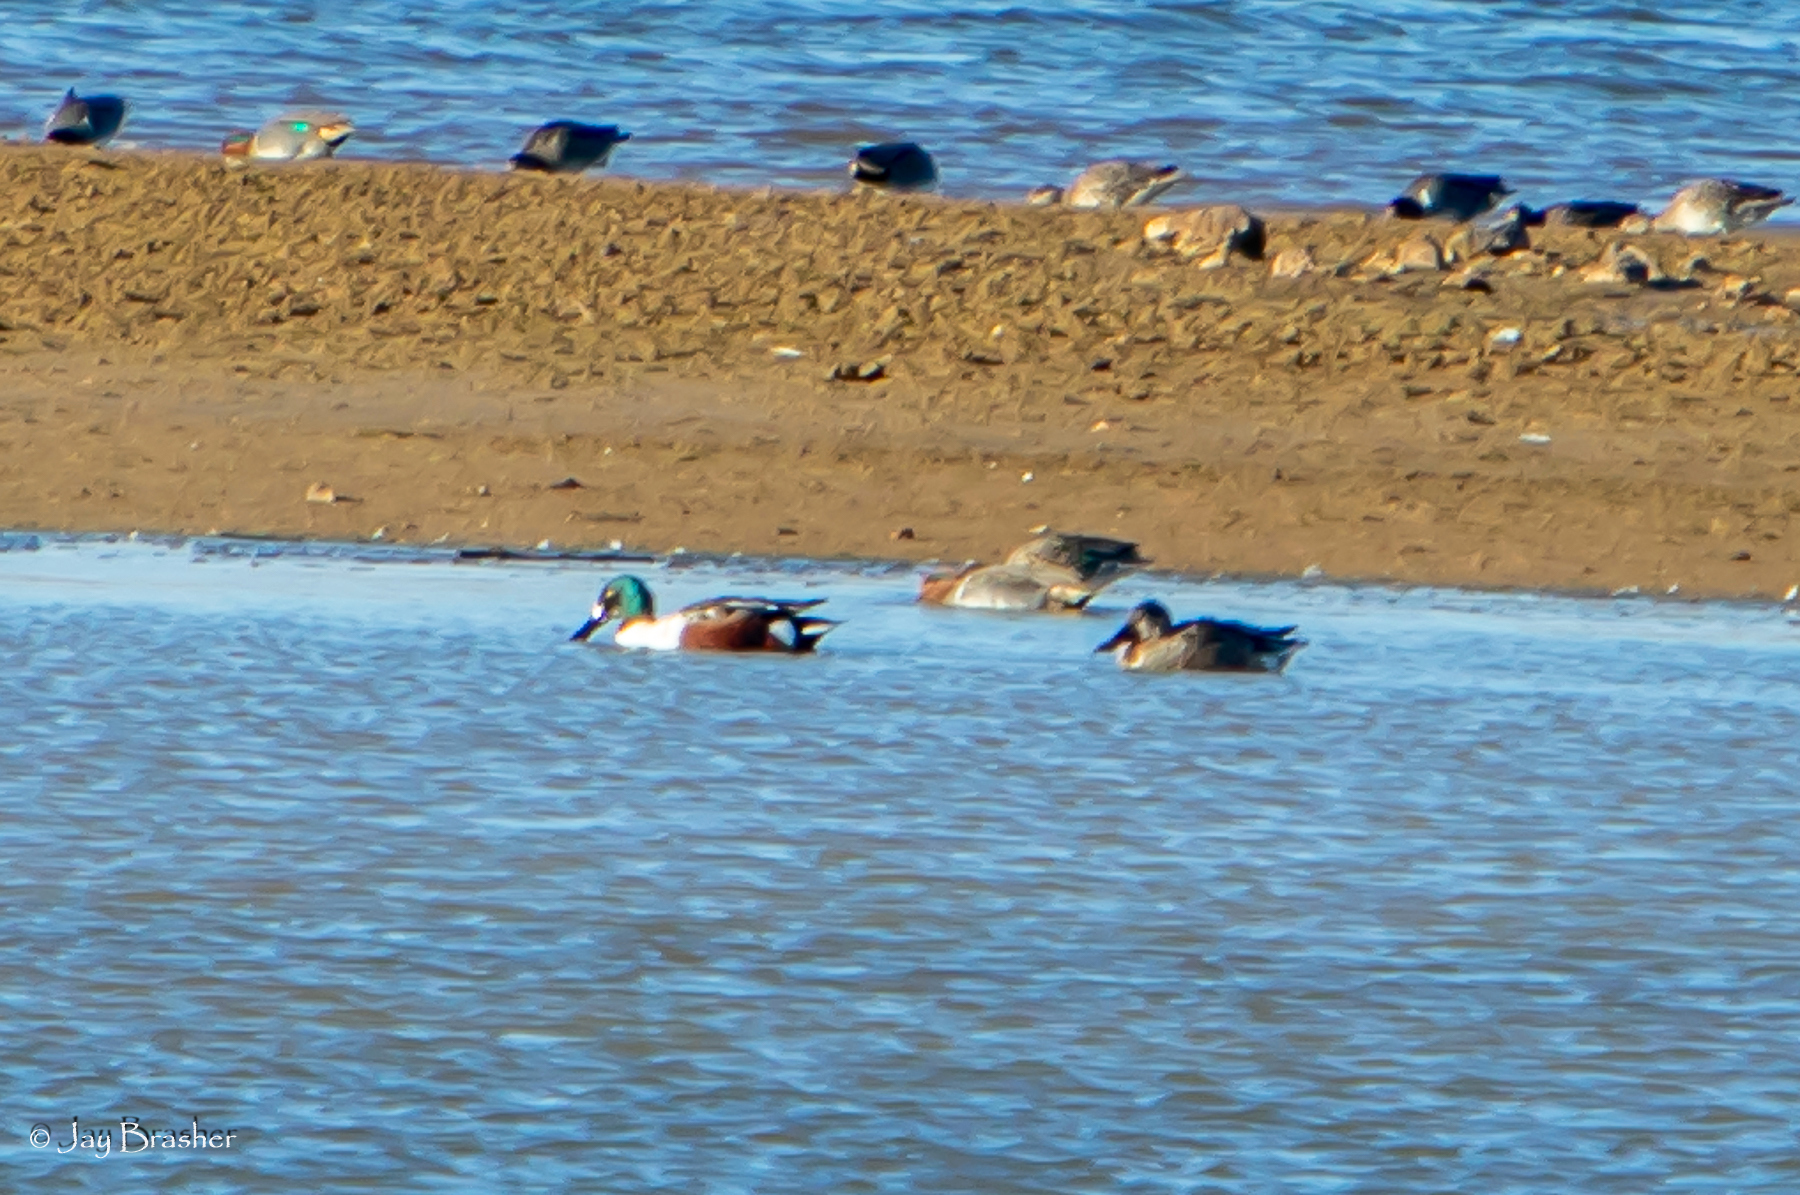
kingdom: Animalia
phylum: Chordata
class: Aves
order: Anseriformes
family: Anatidae
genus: Spatula
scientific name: Spatula clypeata
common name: Northern shoveler
